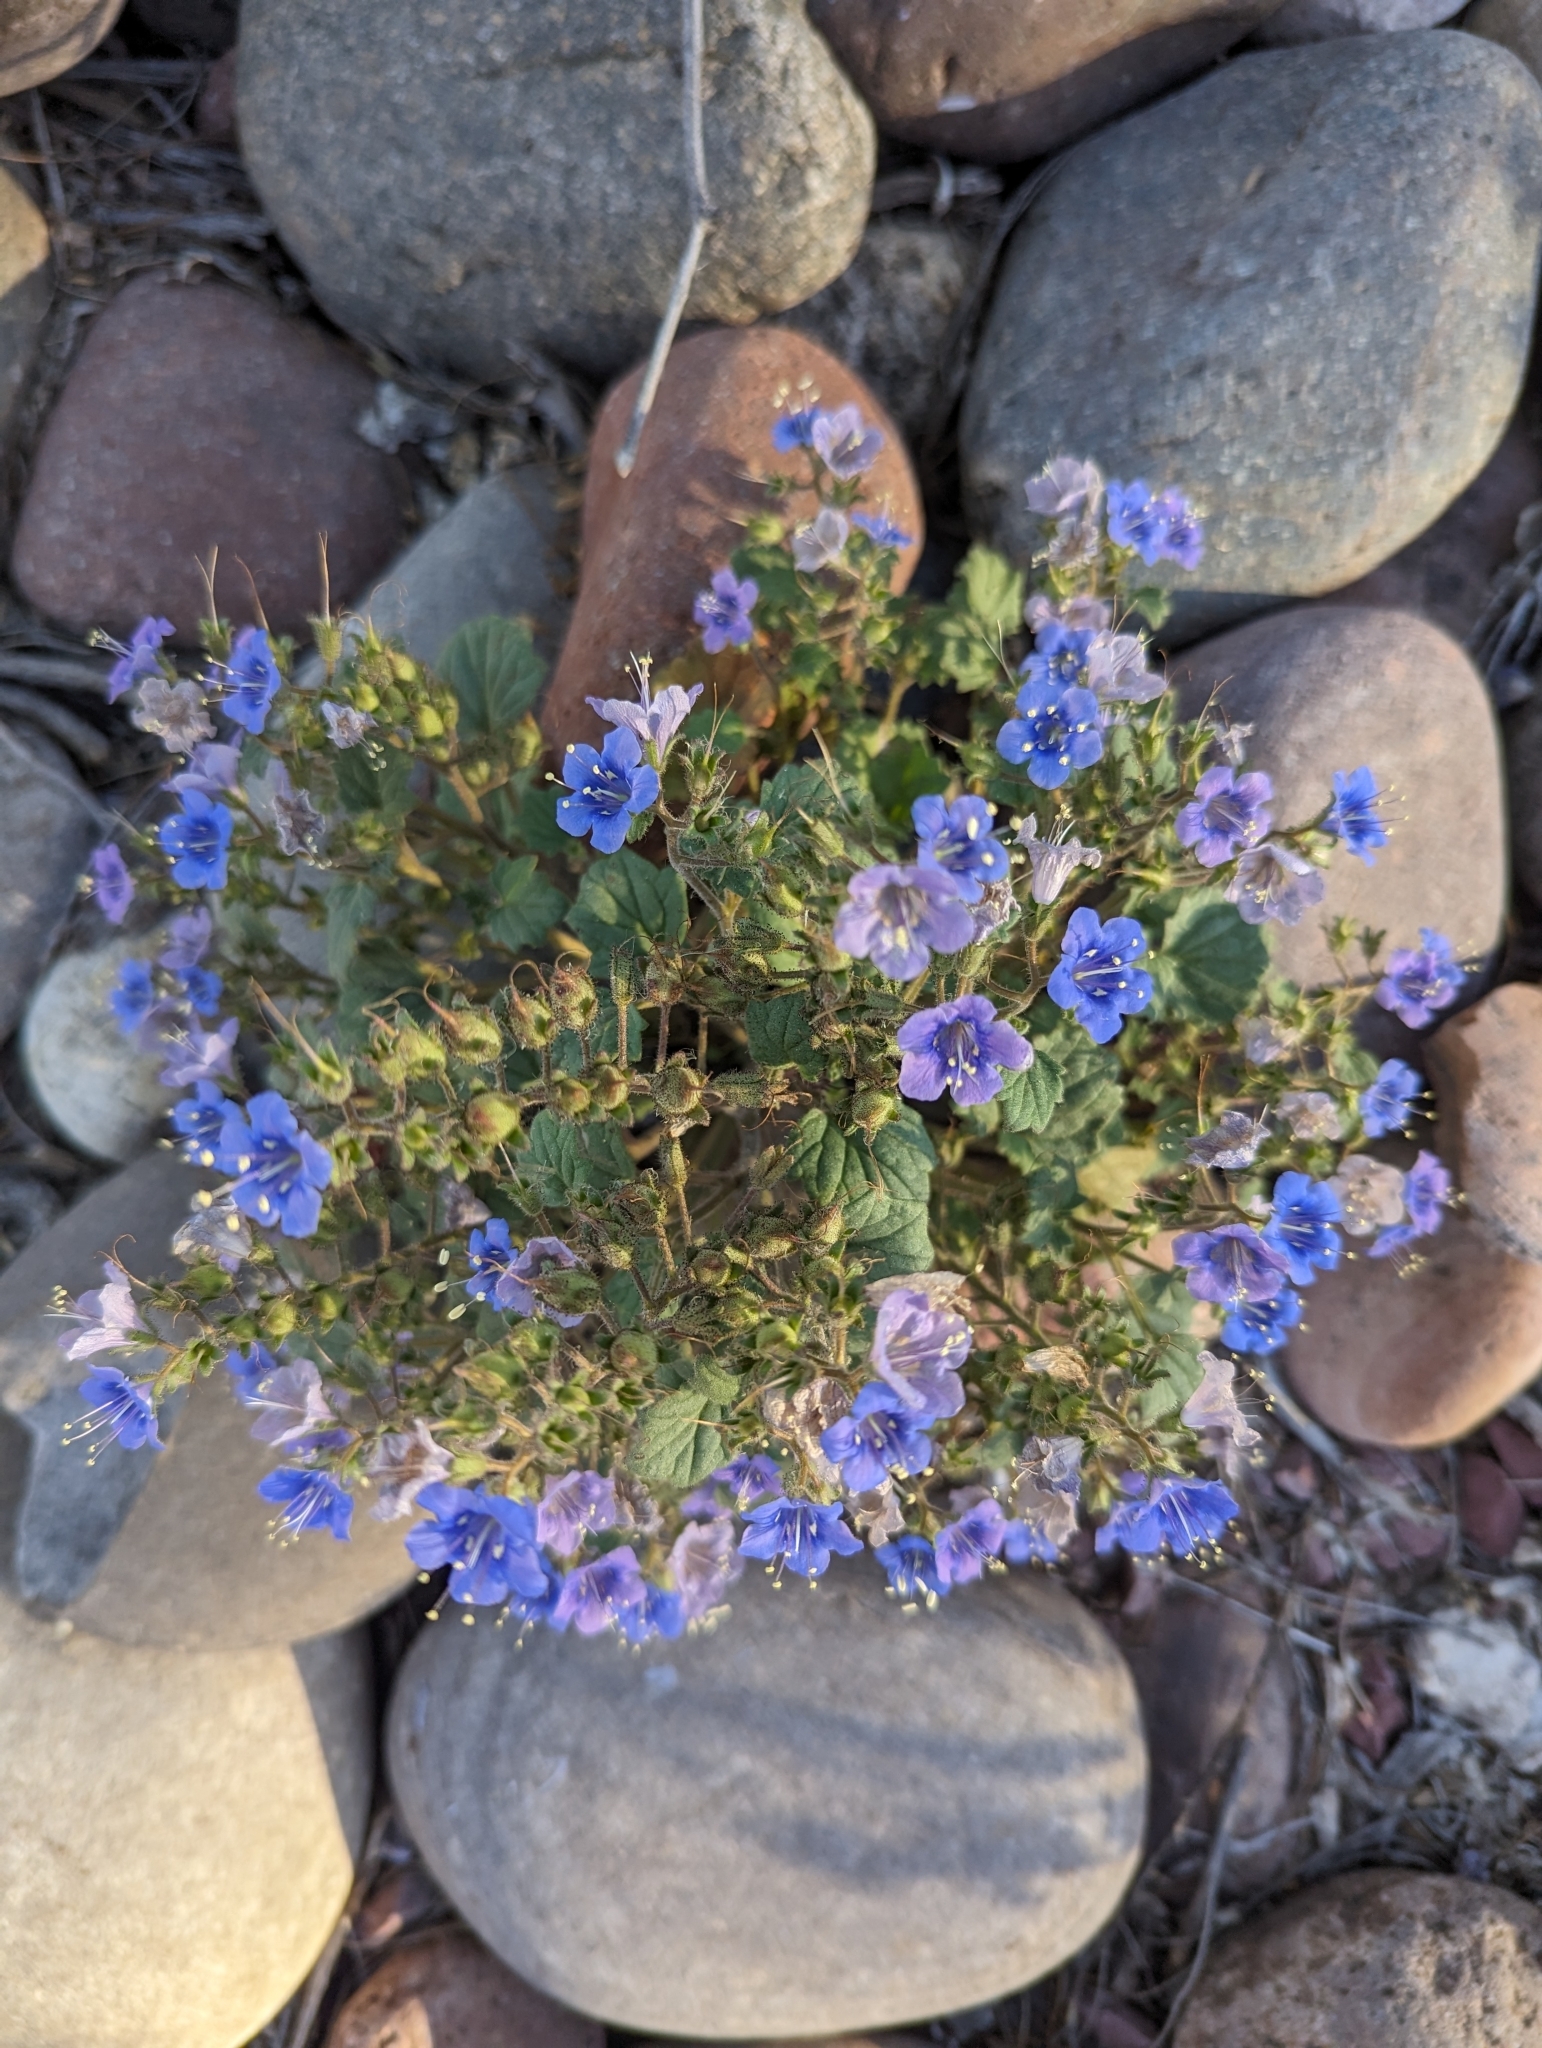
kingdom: Plantae
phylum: Tracheophyta
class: Magnoliopsida
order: Boraginales
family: Hydrophyllaceae
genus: Phacelia
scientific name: Phacelia campanularia
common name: California bluebell
